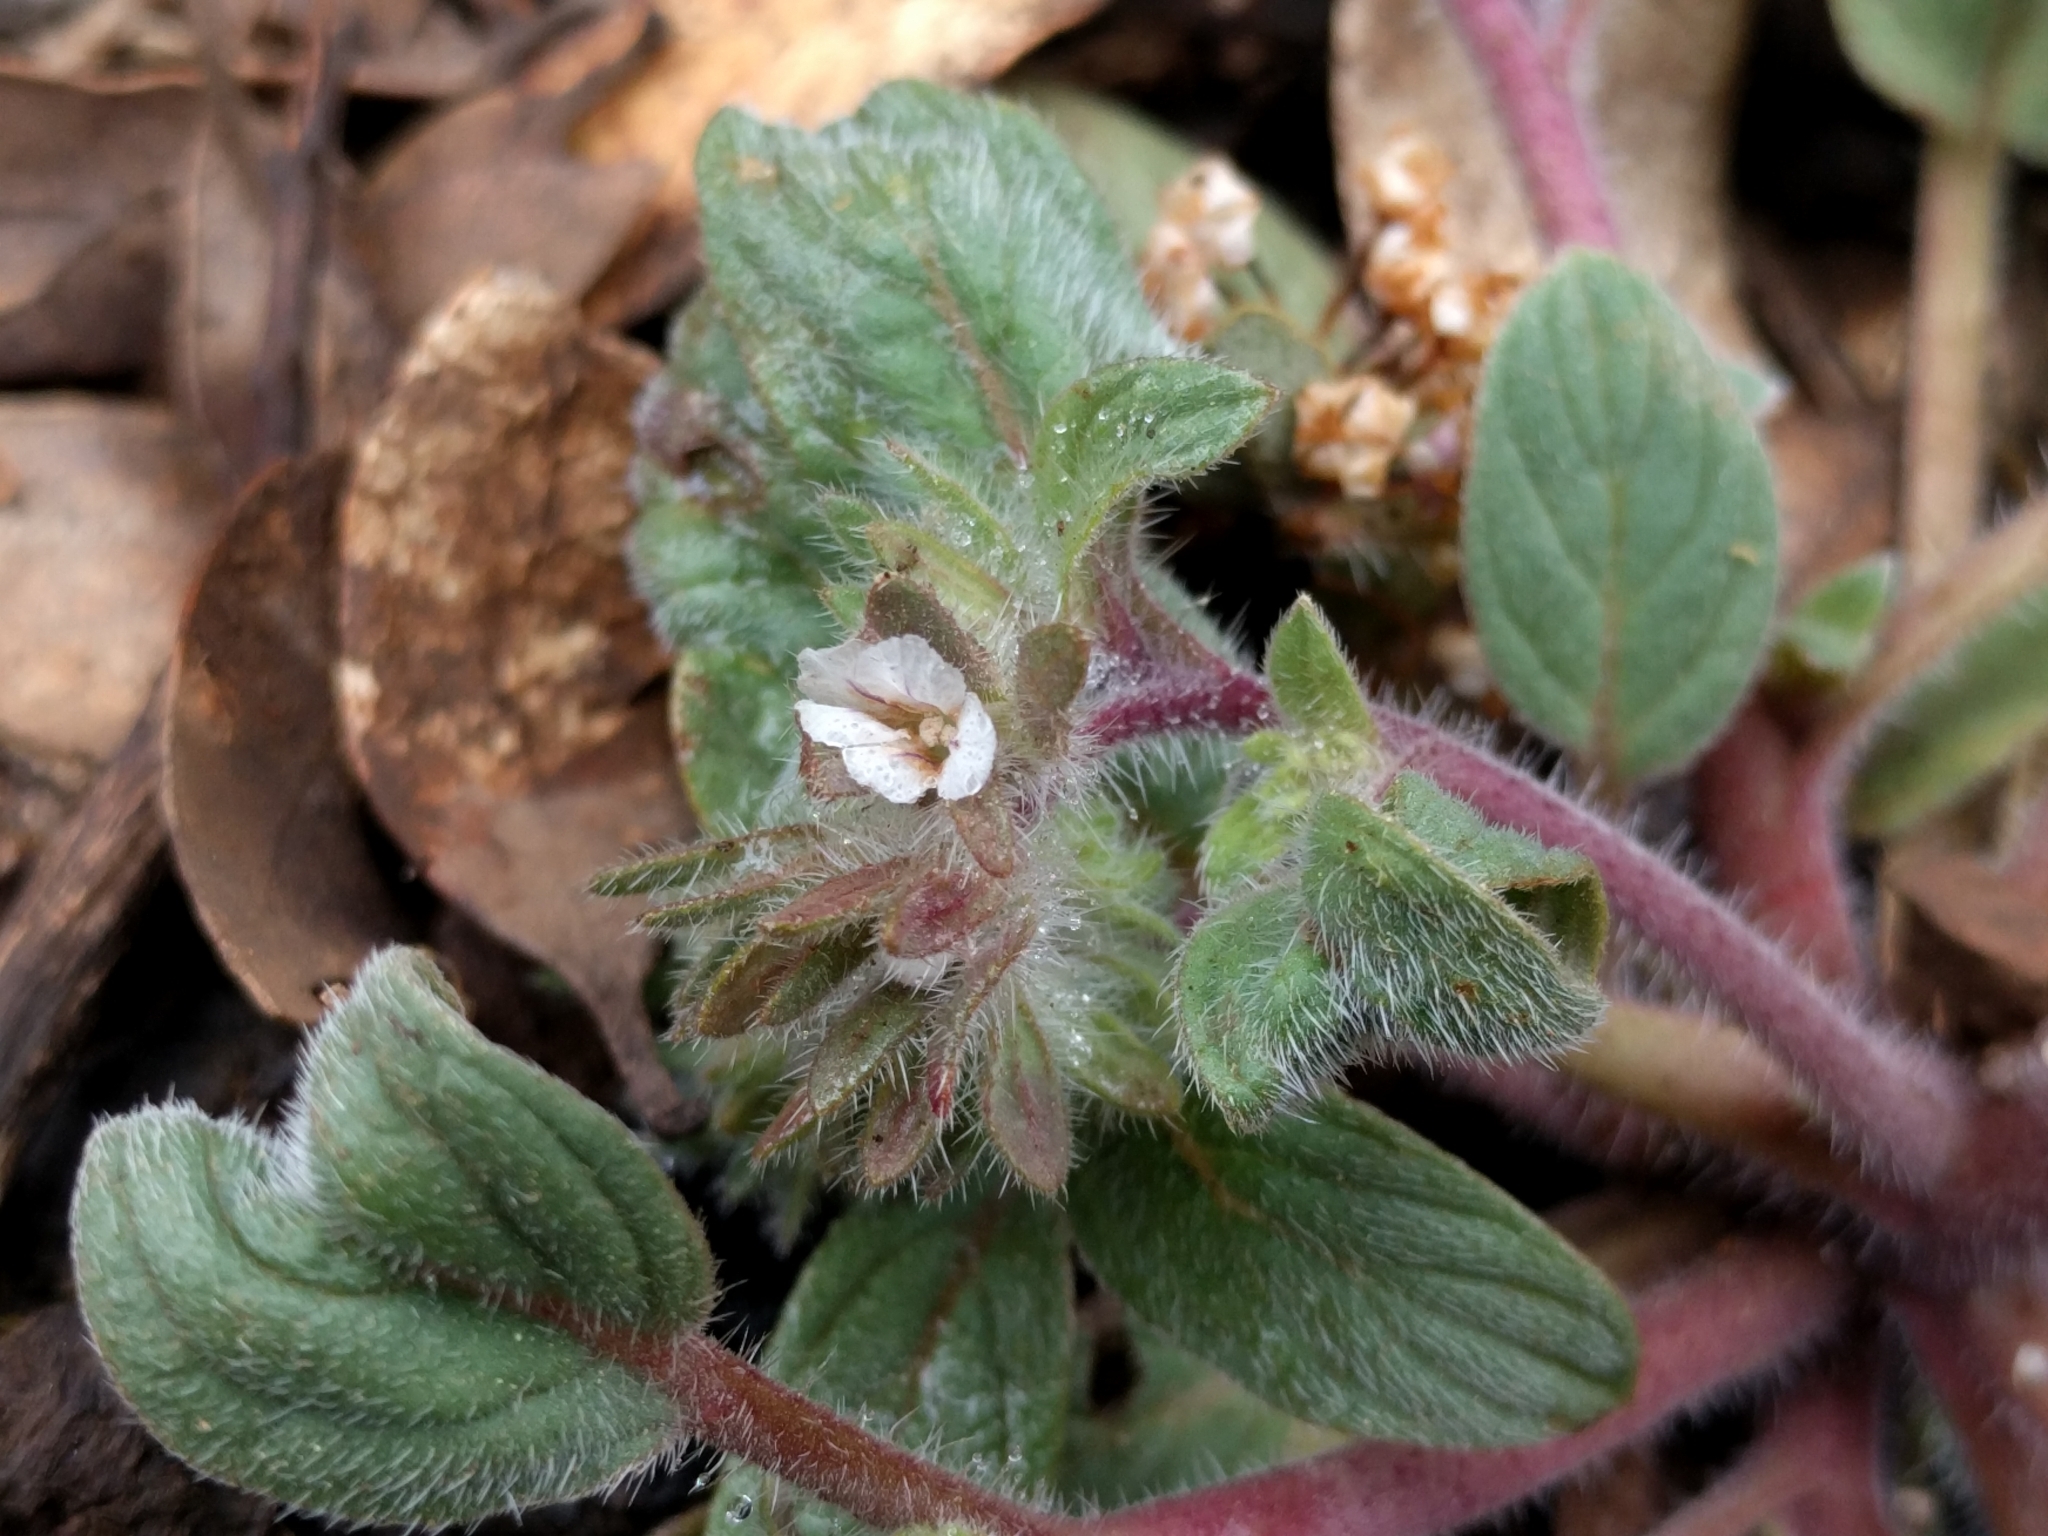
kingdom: Plantae
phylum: Tracheophyta
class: Magnoliopsida
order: Boraginales
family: Hydrophyllaceae
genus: Phacelia
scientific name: Phacelia phacelioides
